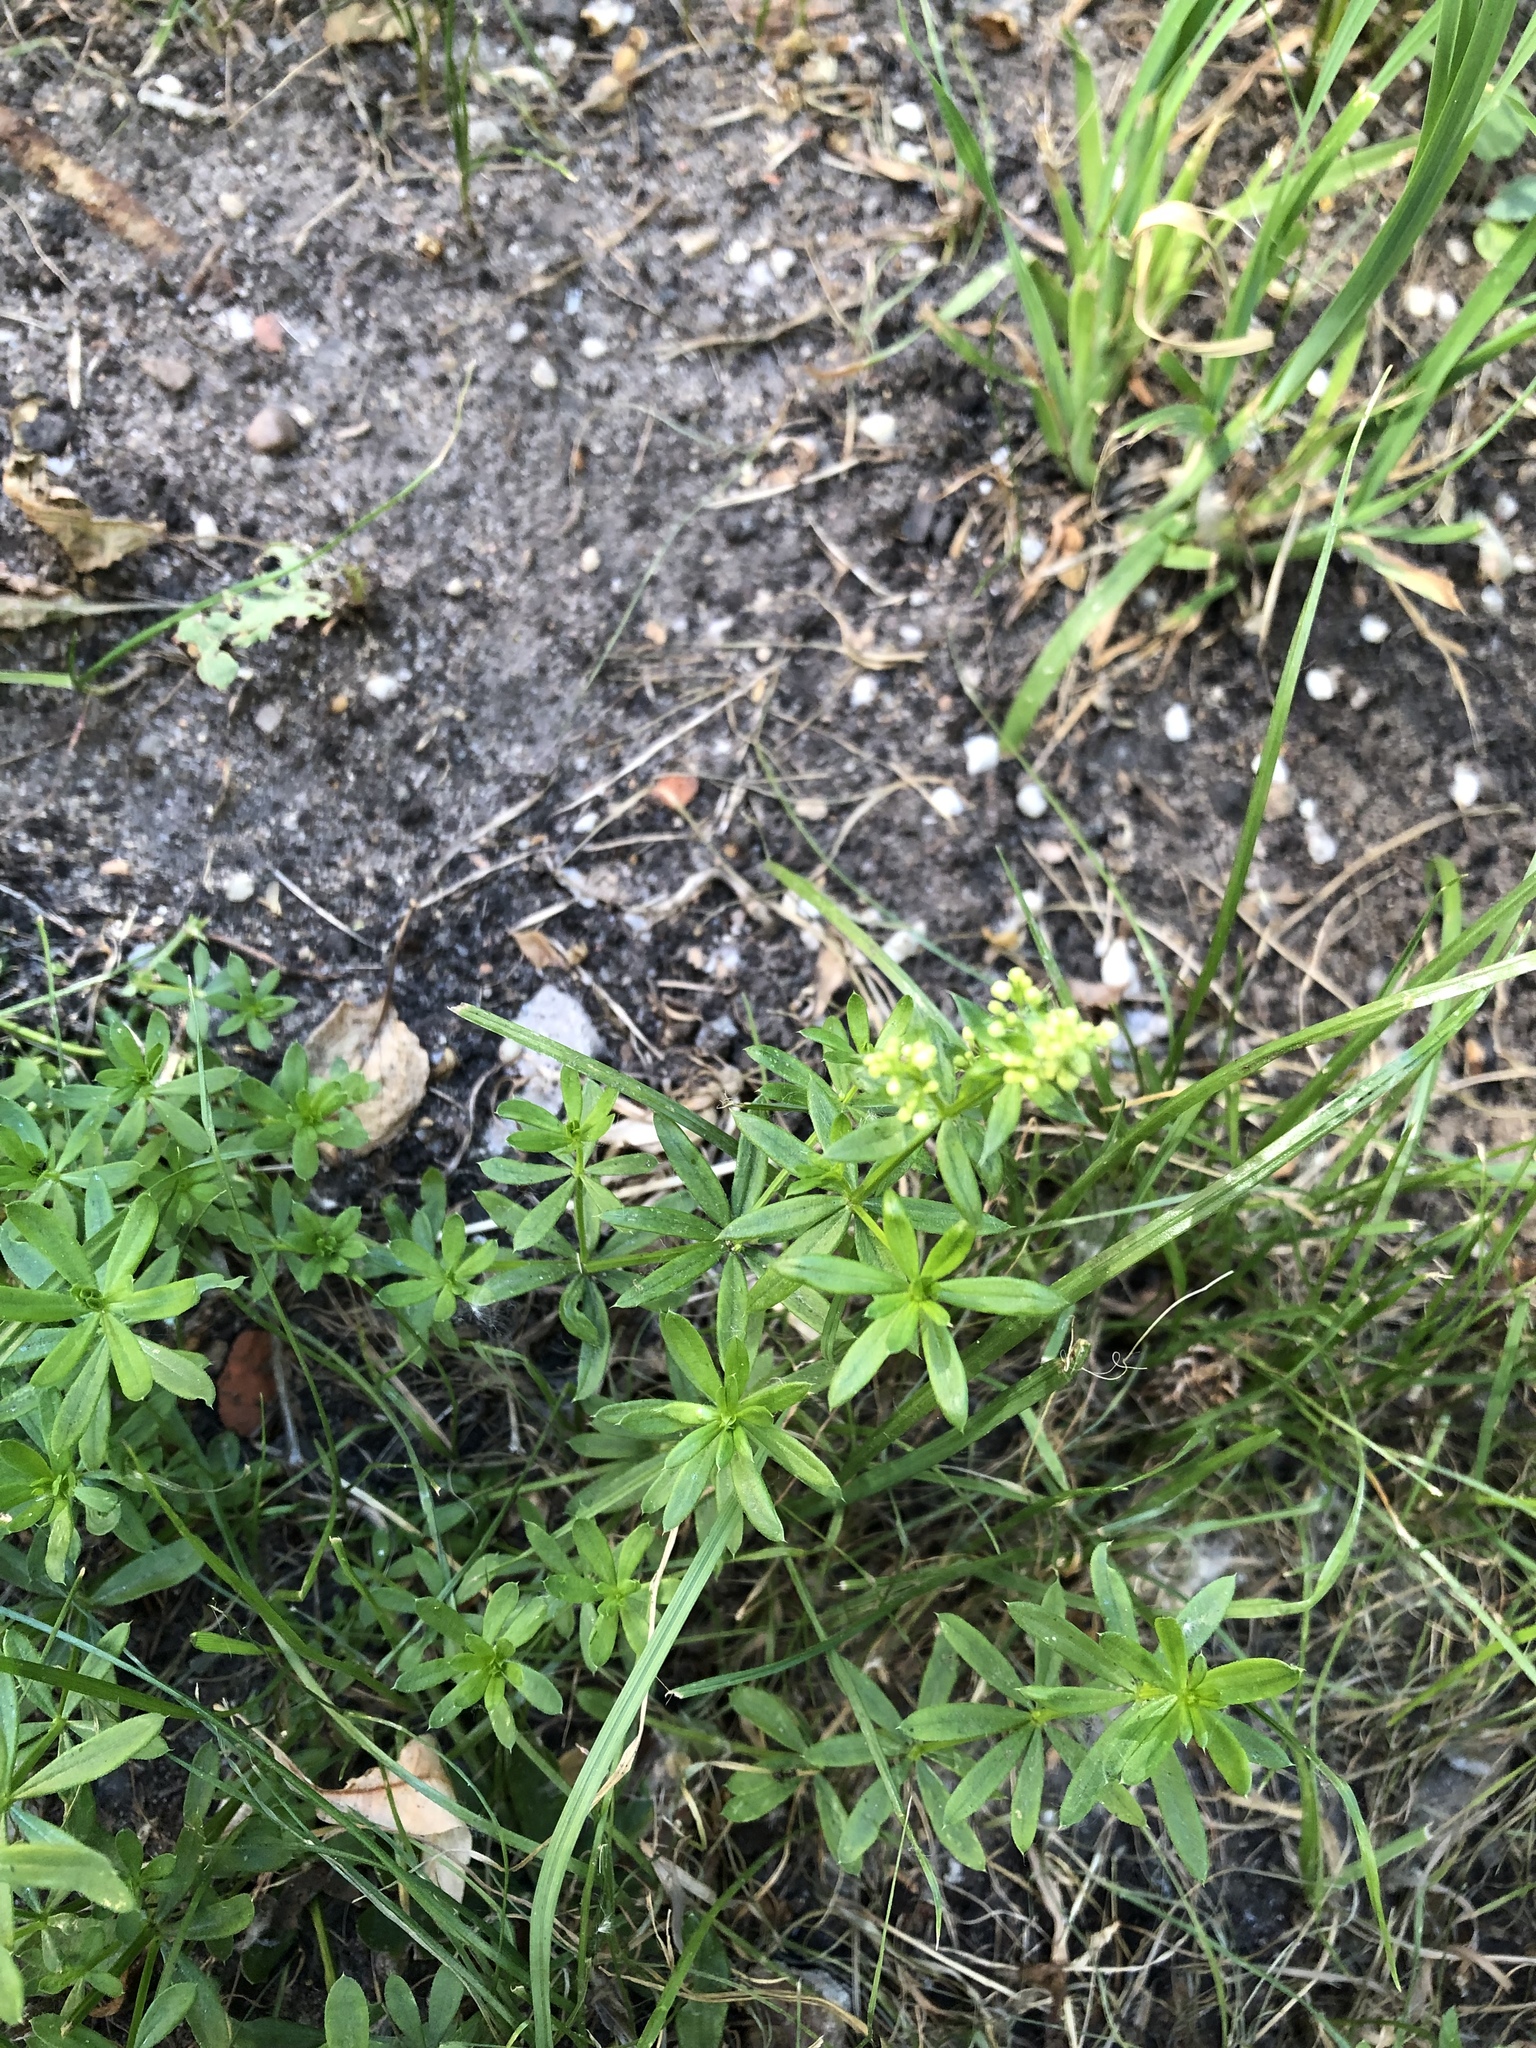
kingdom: Plantae
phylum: Tracheophyta
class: Magnoliopsida
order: Gentianales
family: Rubiaceae
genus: Galium
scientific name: Galium mollugo
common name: Hedge bedstraw
